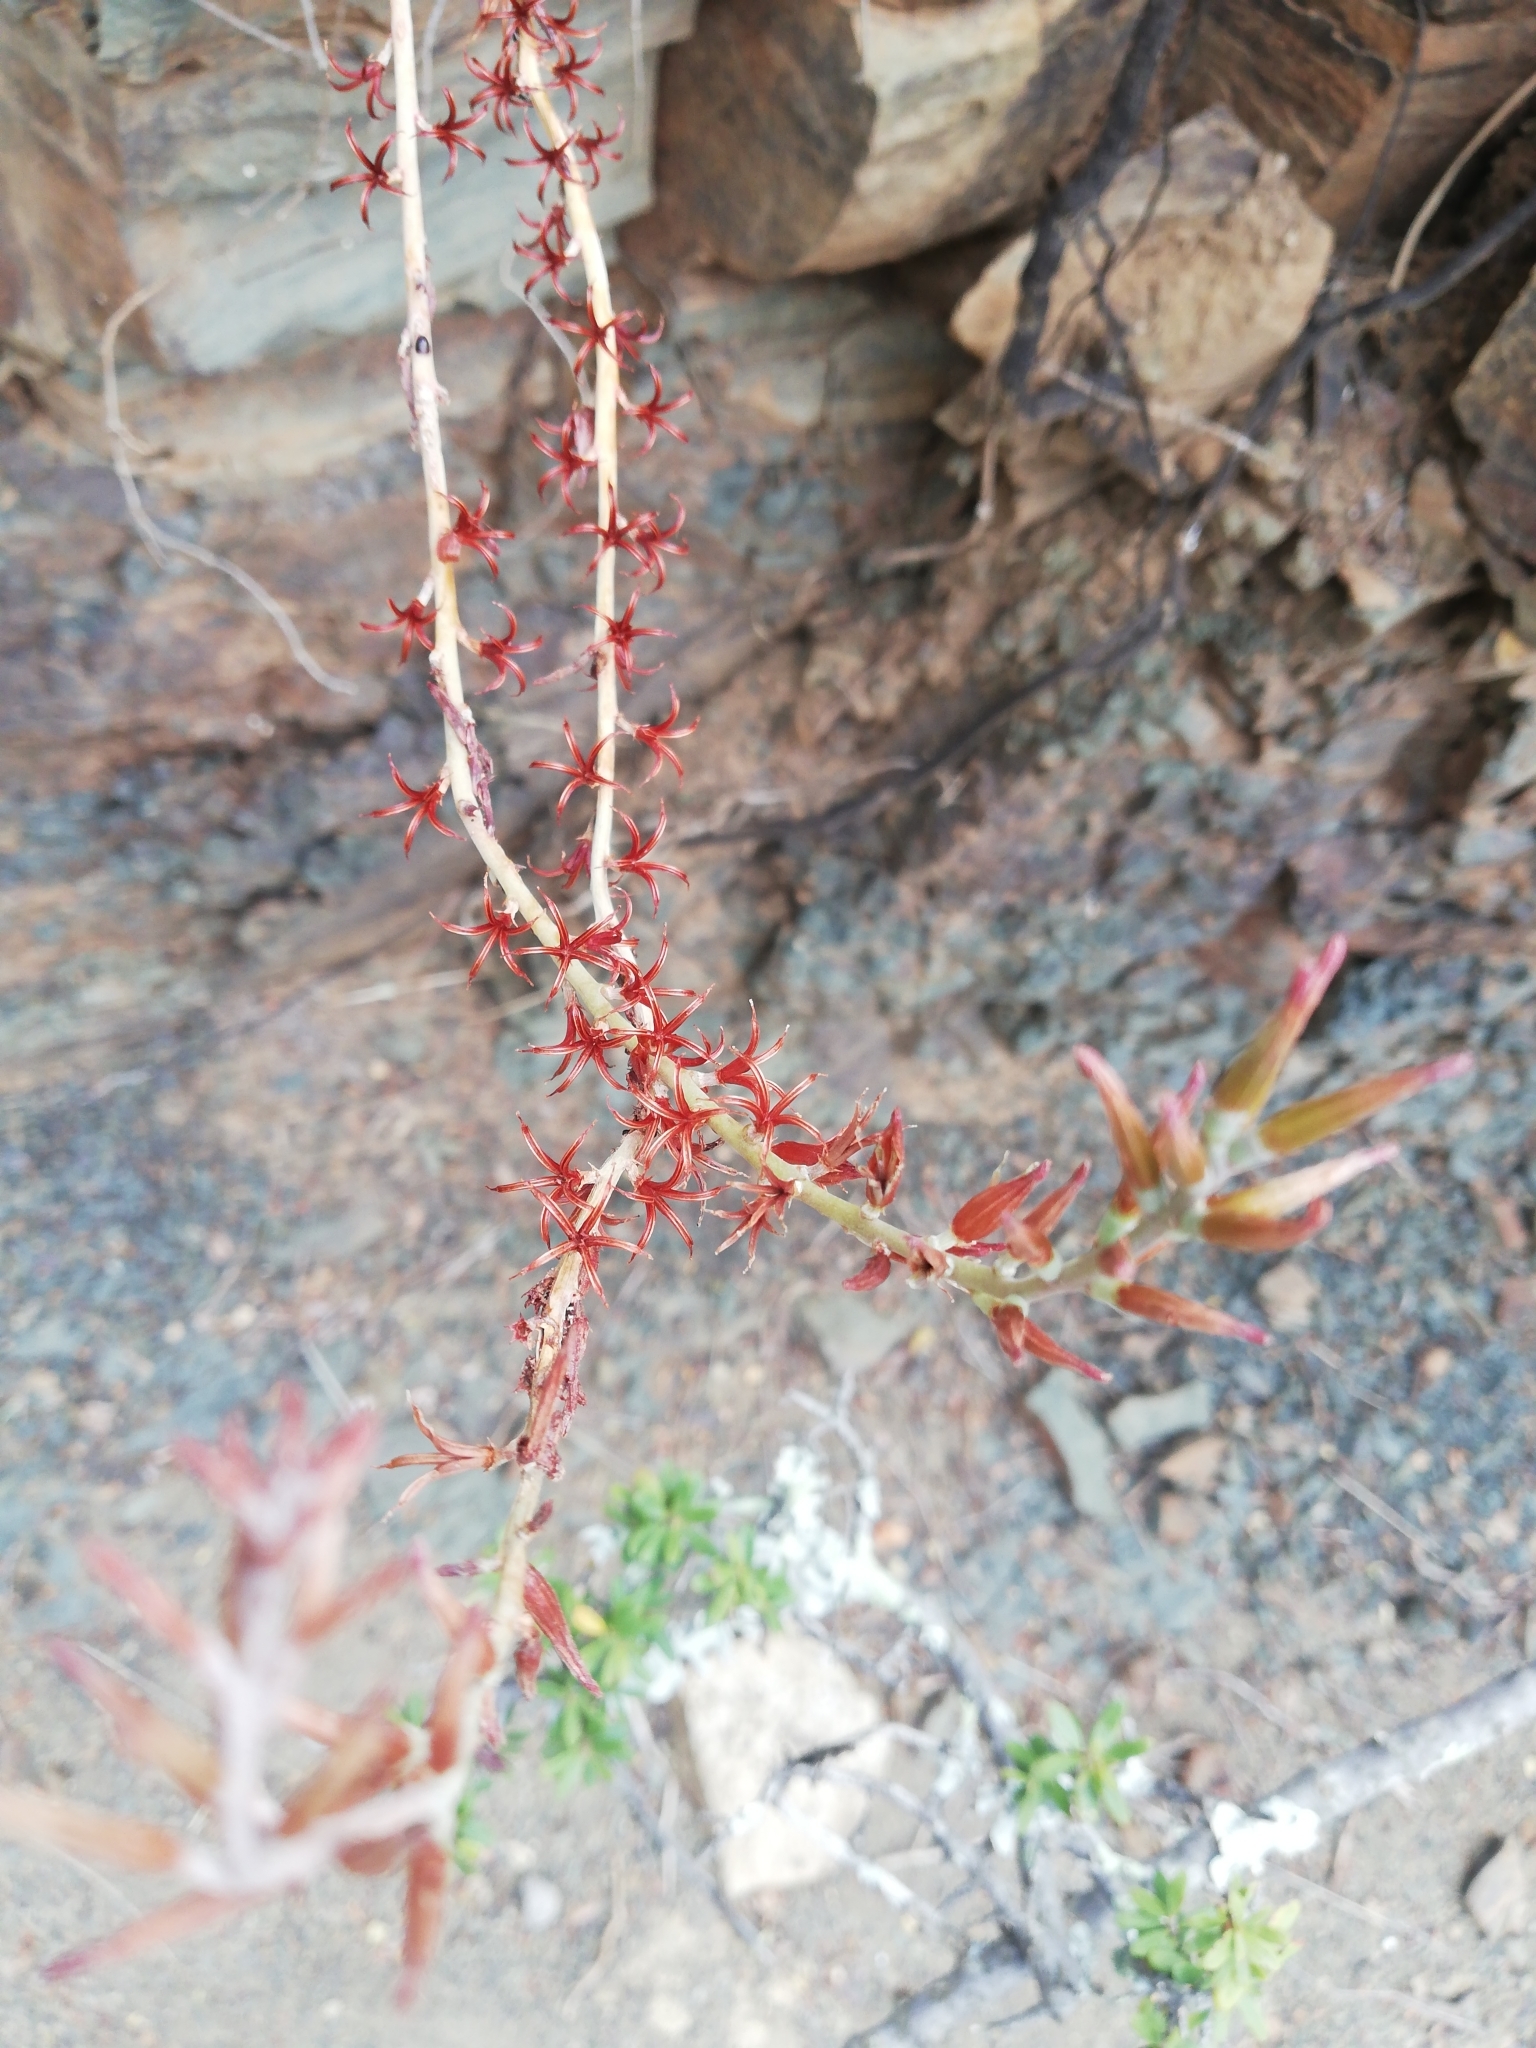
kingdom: Plantae
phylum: Tracheophyta
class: Magnoliopsida
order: Saxifragales
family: Crassulaceae
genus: Adromischus
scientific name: Adromischus sphenophyllus
